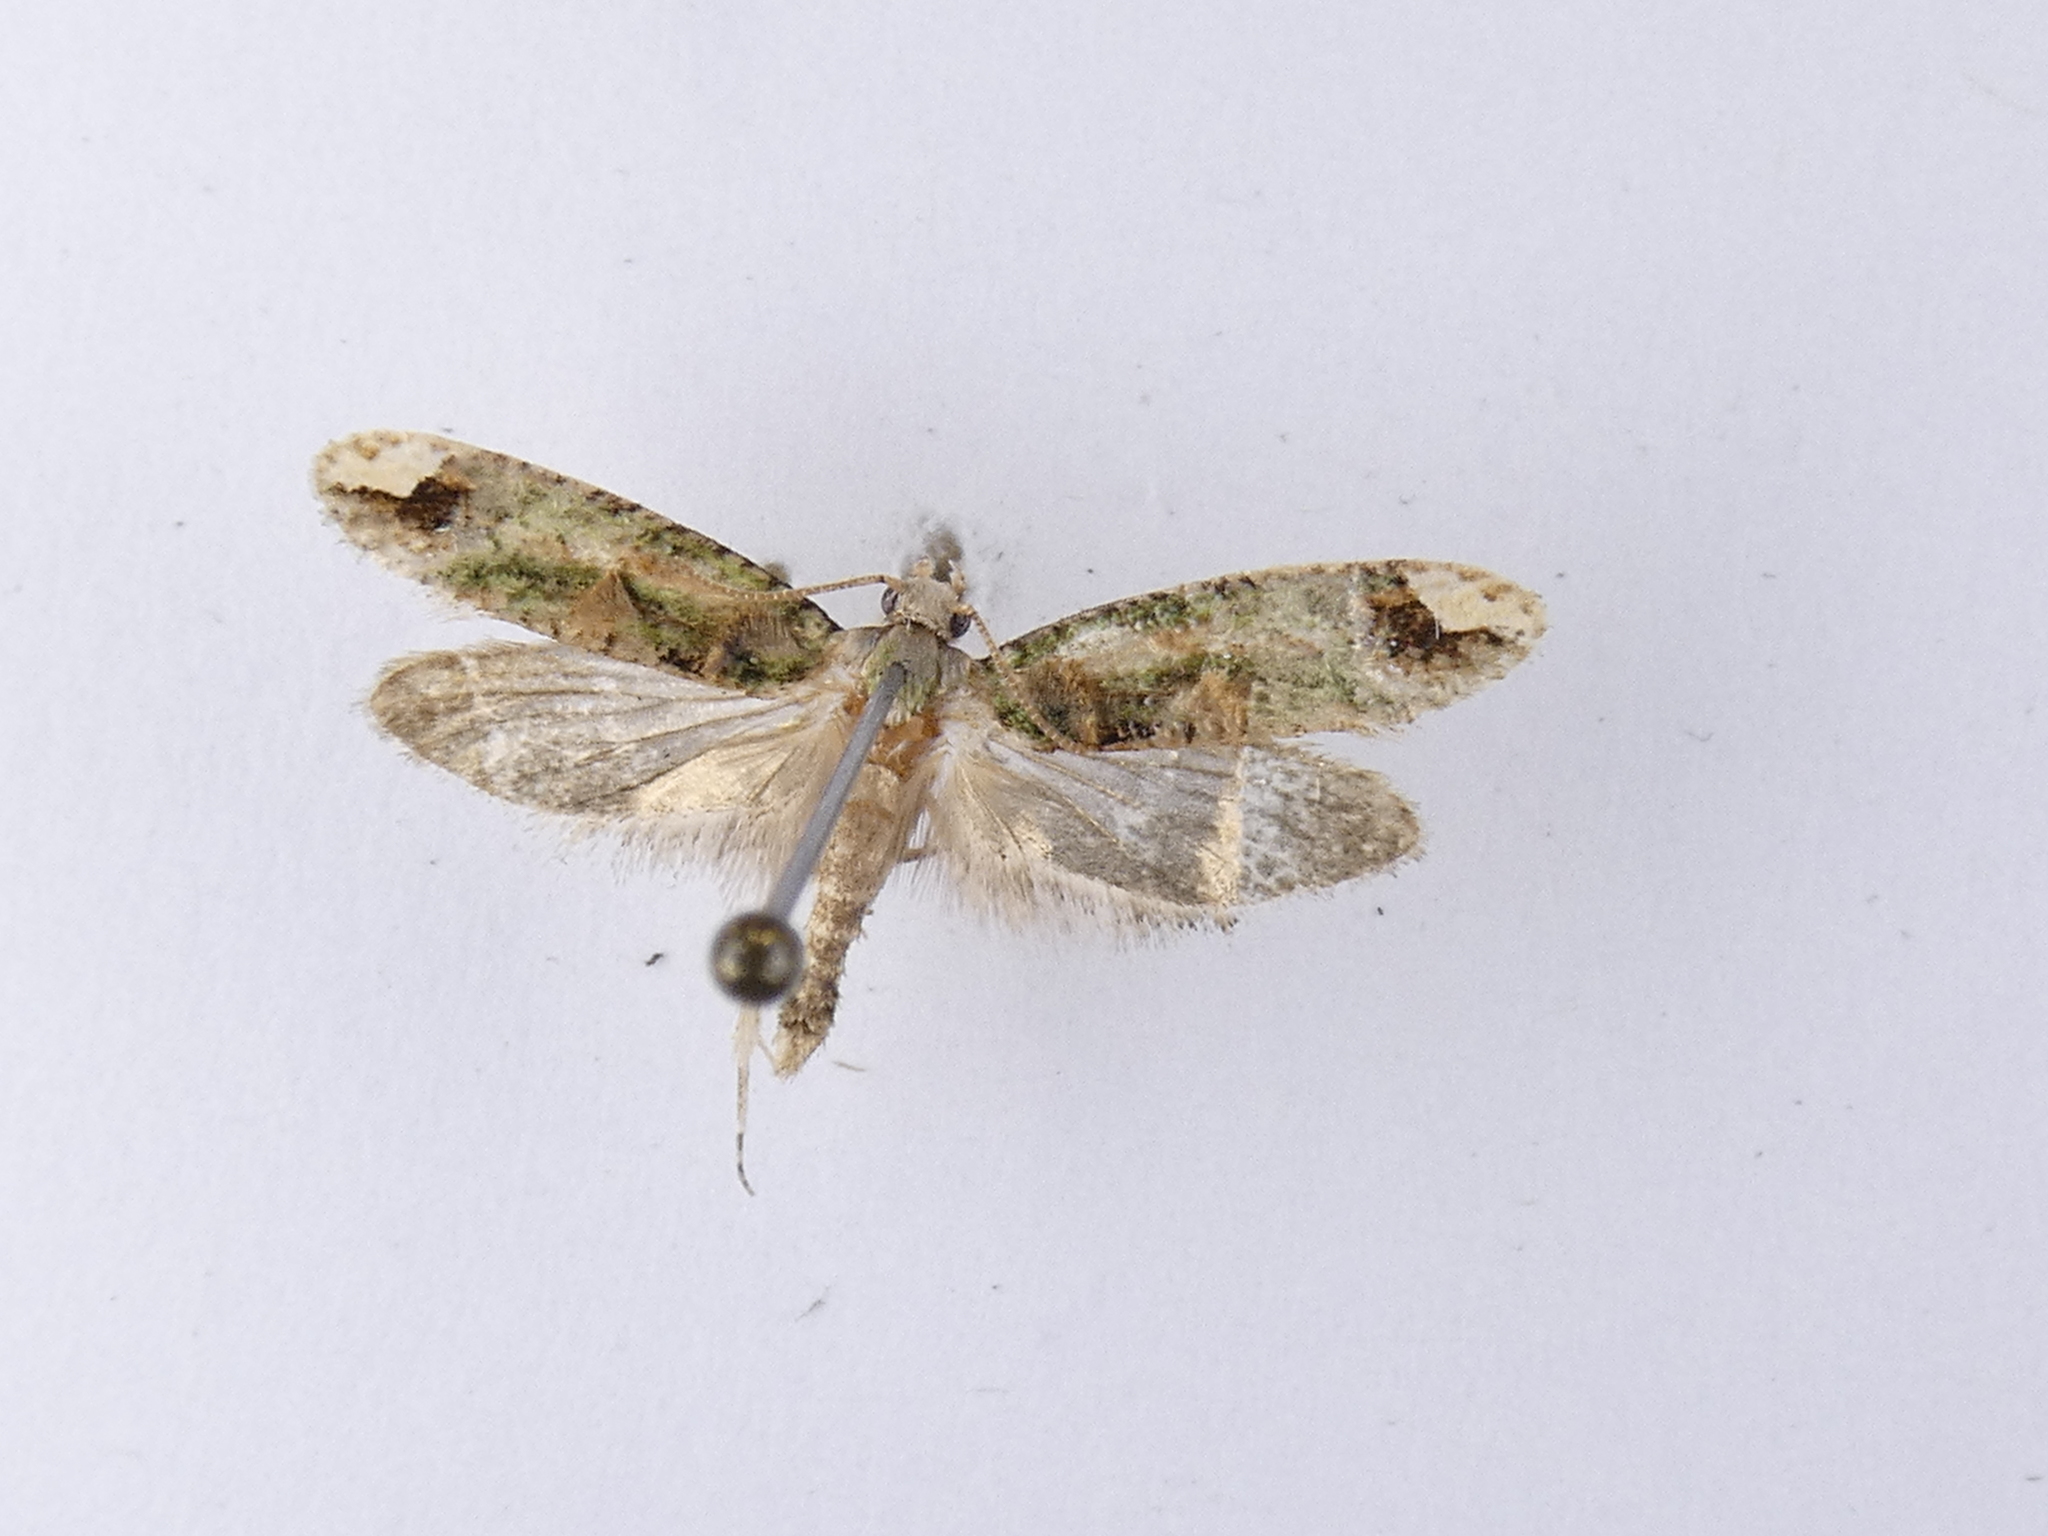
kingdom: Animalia
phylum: Arthropoda
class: Insecta
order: Lepidoptera
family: Tineidae
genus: Lysiphragma
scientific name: Lysiphragma mixochlora
